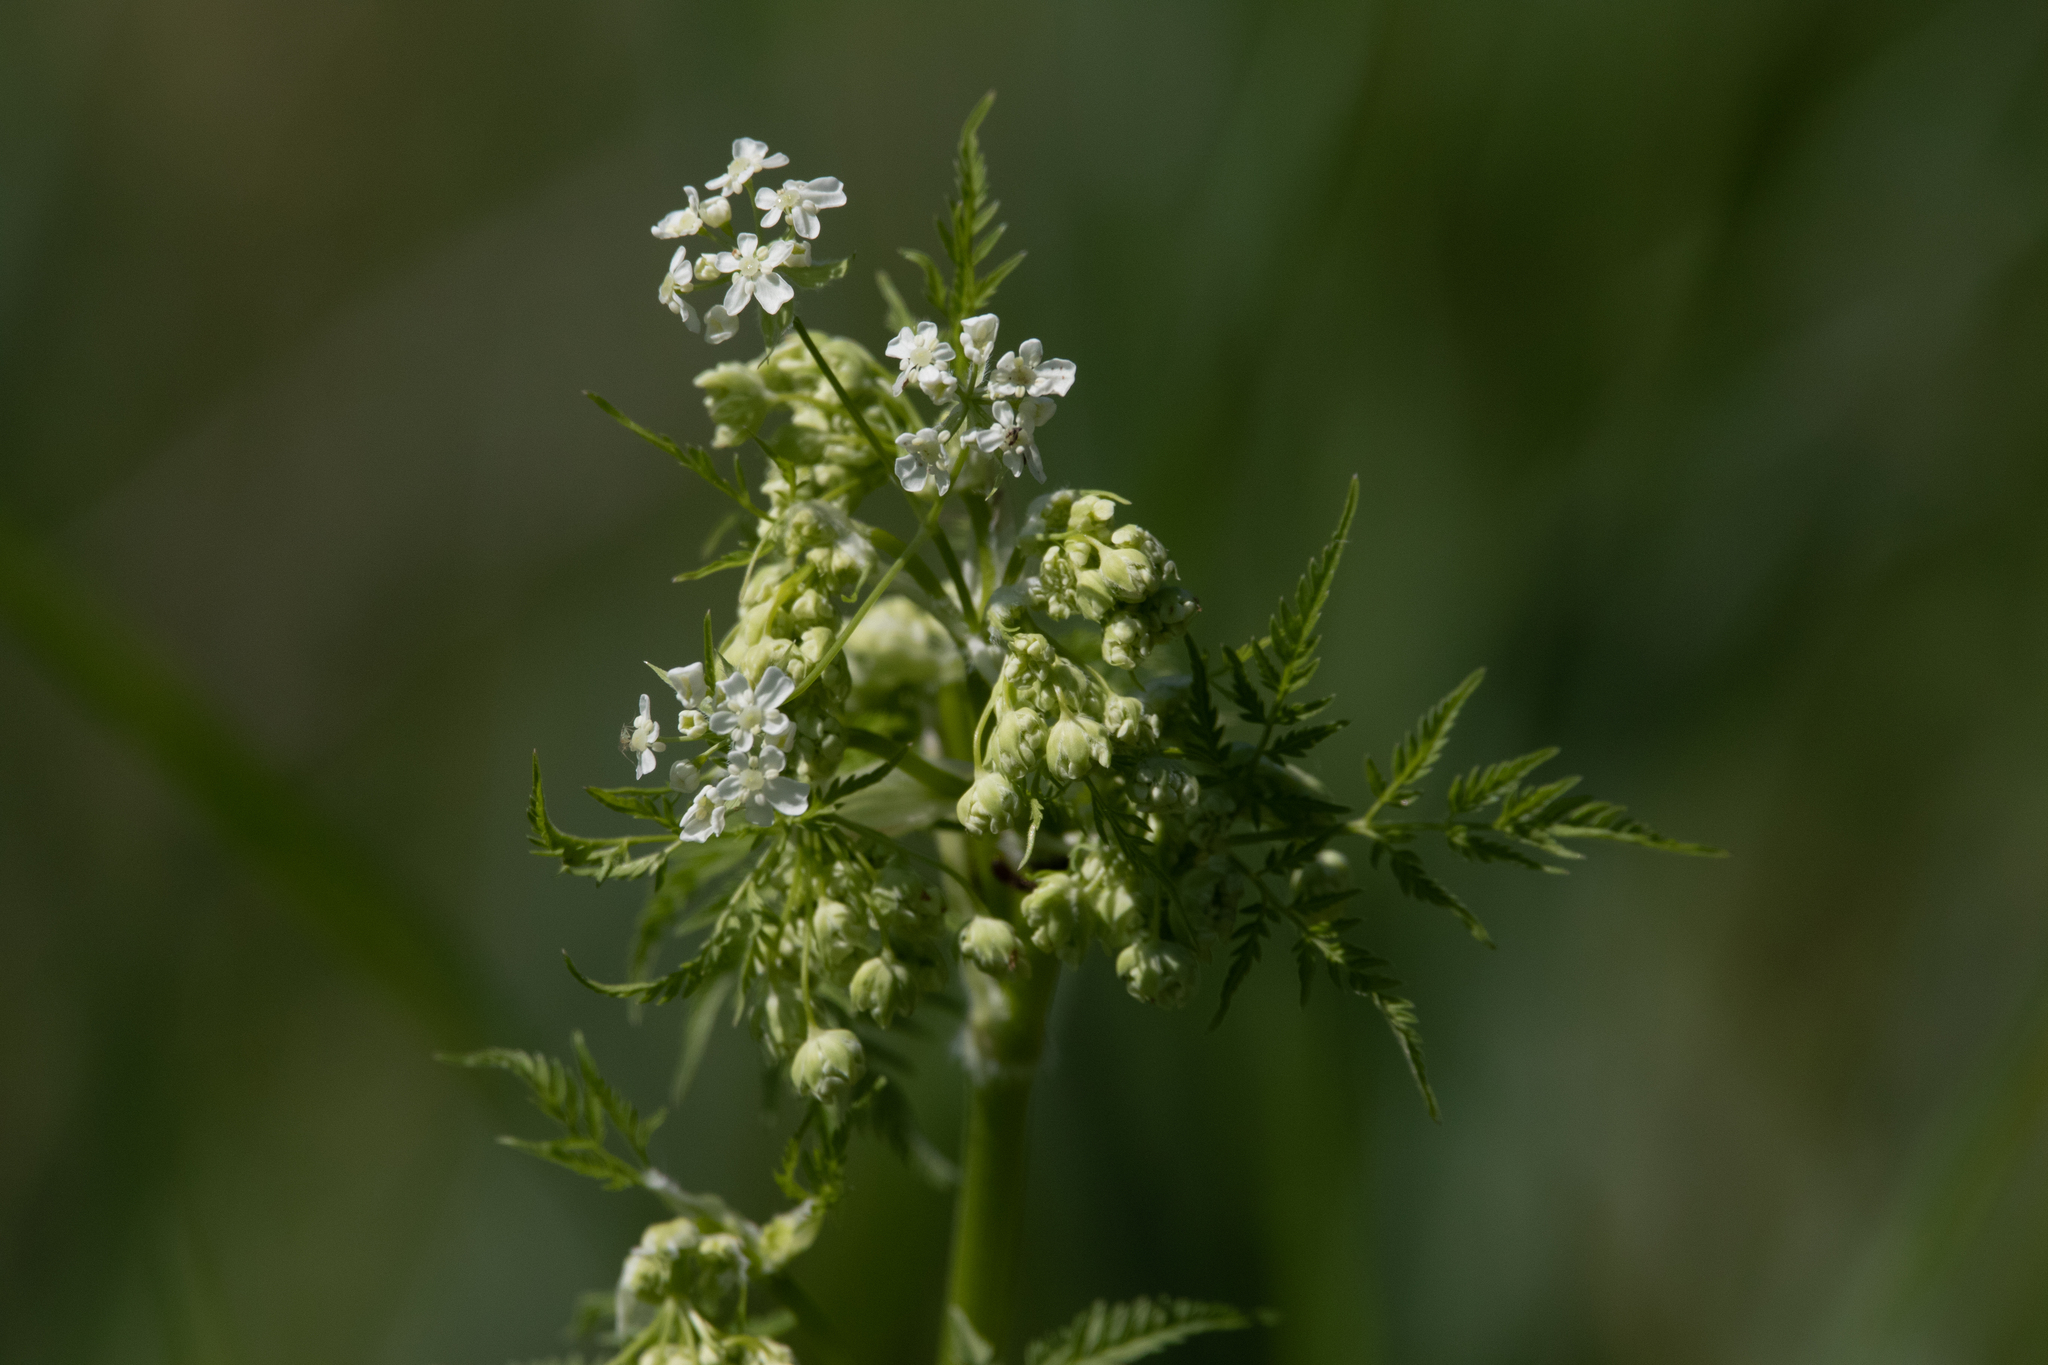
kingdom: Plantae
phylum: Tracheophyta
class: Magnoliopsida
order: Apiales
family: Apiaceae
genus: Anthriscus
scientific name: Anthriscus sylvestris
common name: Cow parsley
